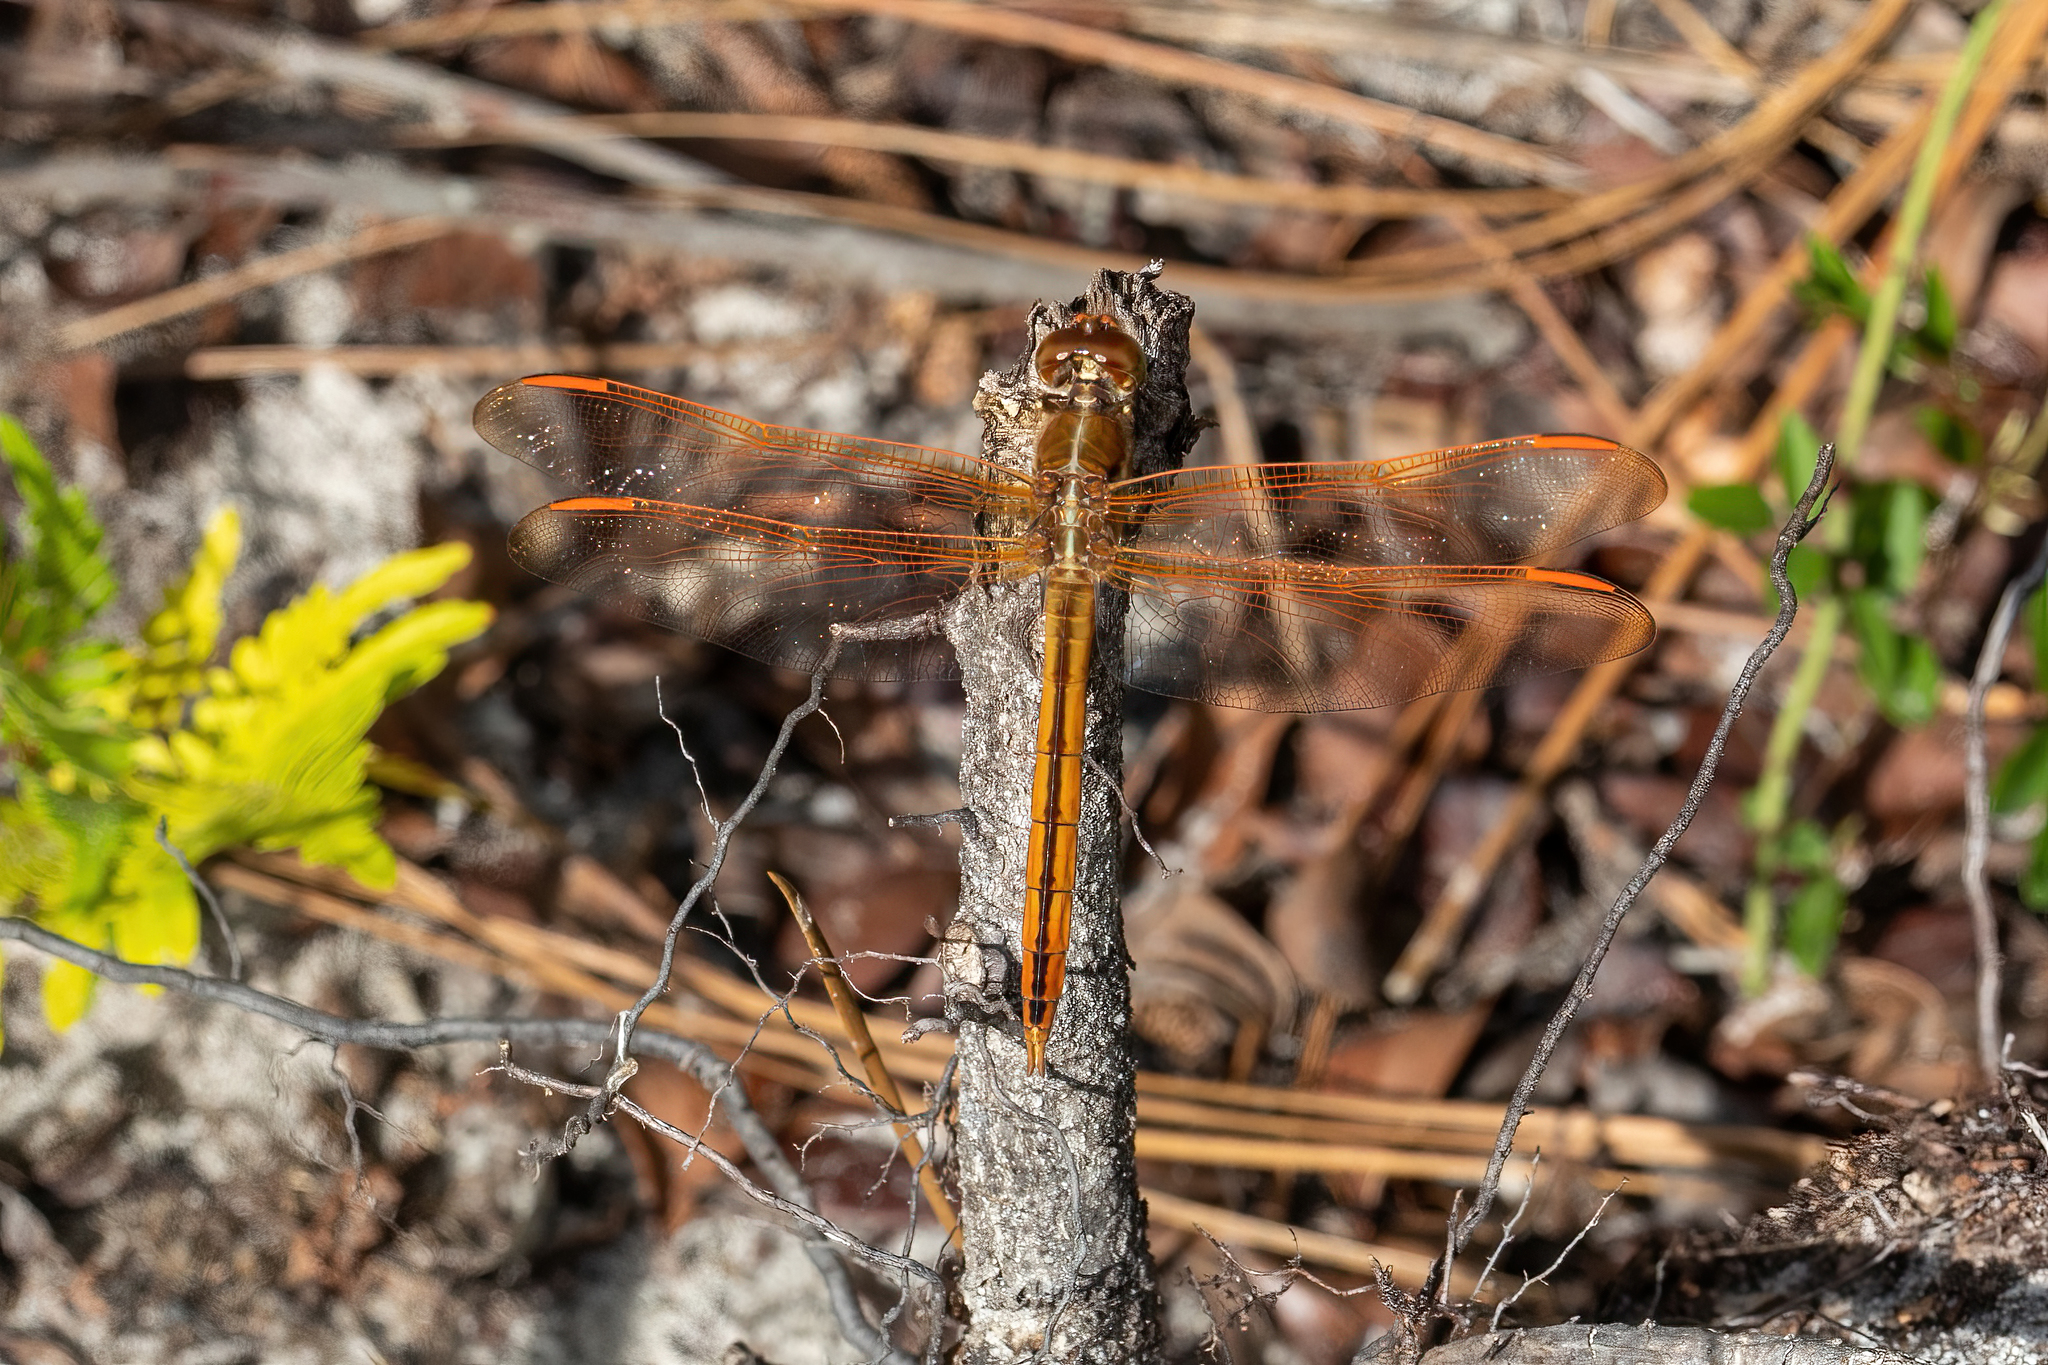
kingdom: Animalia
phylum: Arthropoda
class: Insecta
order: Odonata
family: Libellulidae
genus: Libellula
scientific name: Libellula auripennis
